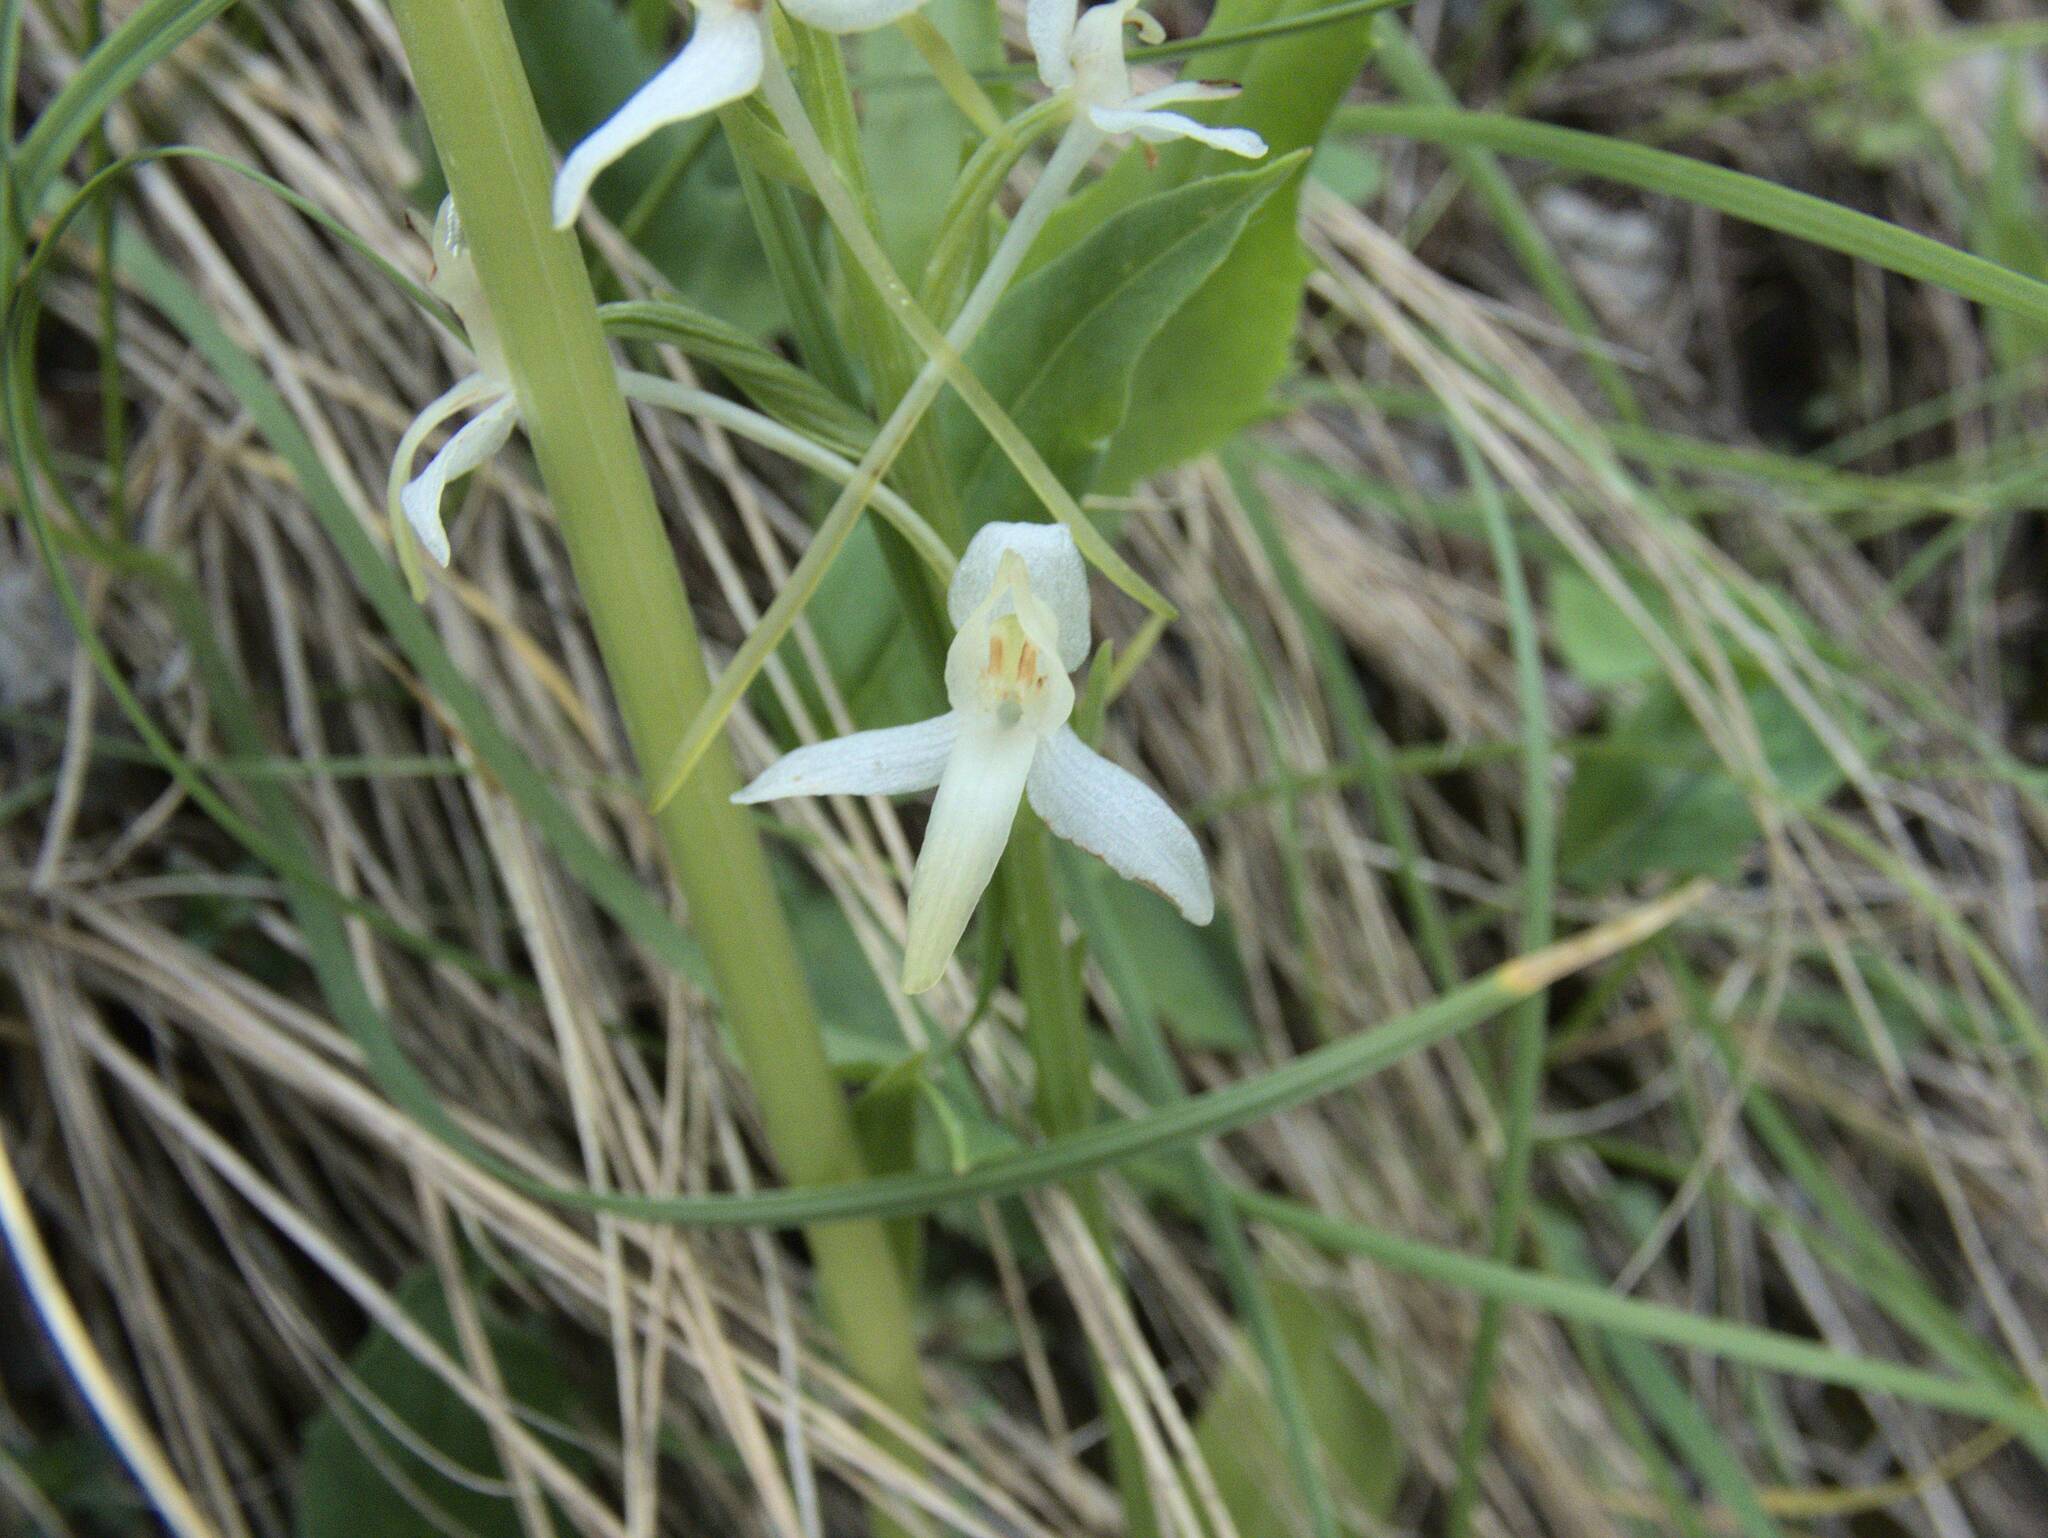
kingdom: Plantae
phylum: Tracheophyta
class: Liliopsida
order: Asparagales
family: Orchidaceae
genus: Platanthera
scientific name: Platanthera bifolia
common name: Lesser butterfly-orchid
